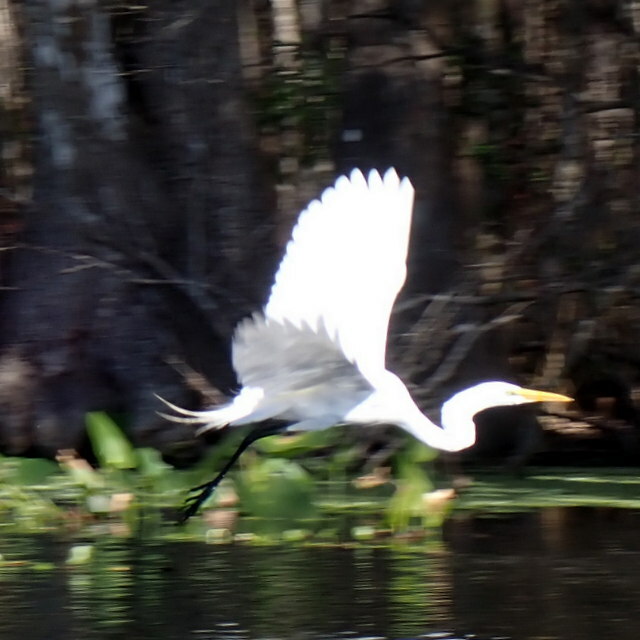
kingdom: Animalia
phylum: Chordata
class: Aves
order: Pelecaniformes
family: Ardeidae
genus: Ardea
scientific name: Ardea alba
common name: Great egret
